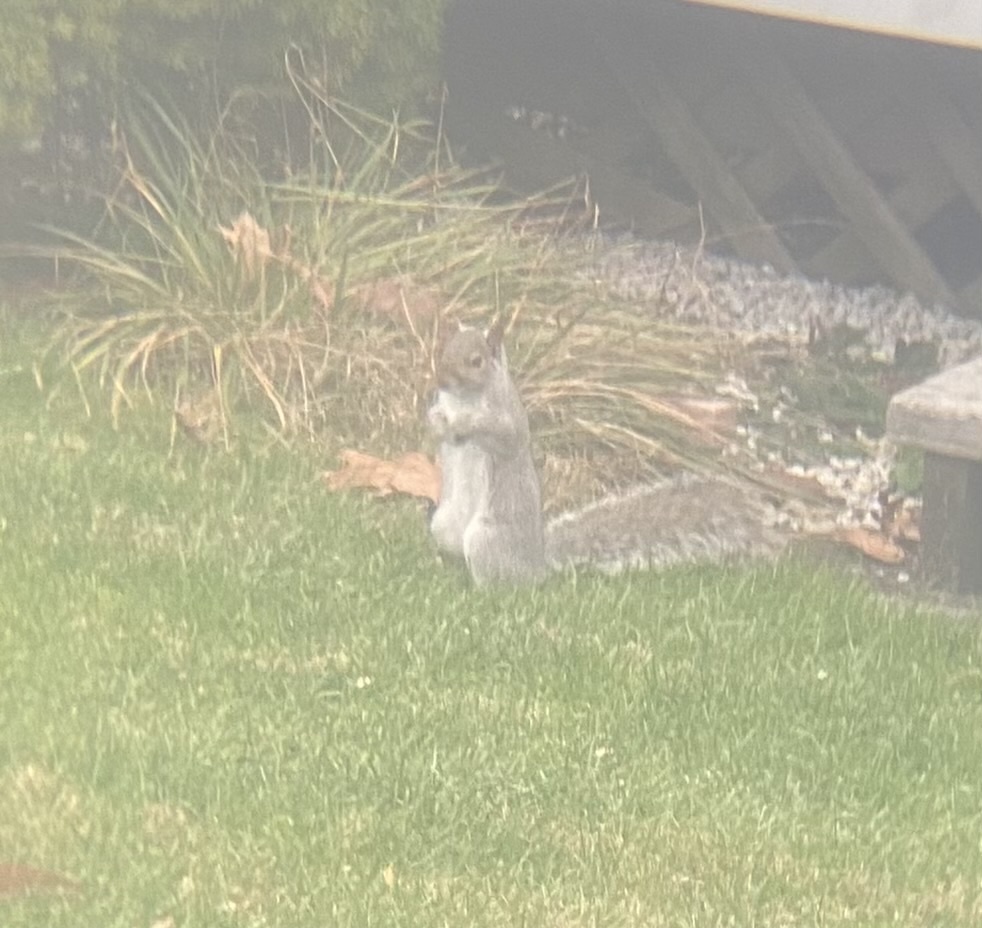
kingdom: Animalia
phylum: Chordata
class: Mammalia
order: Rodentia
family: Sciuridae
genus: Sciurus
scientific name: Sciurus carolinensis
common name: Eastern gray squirrel
